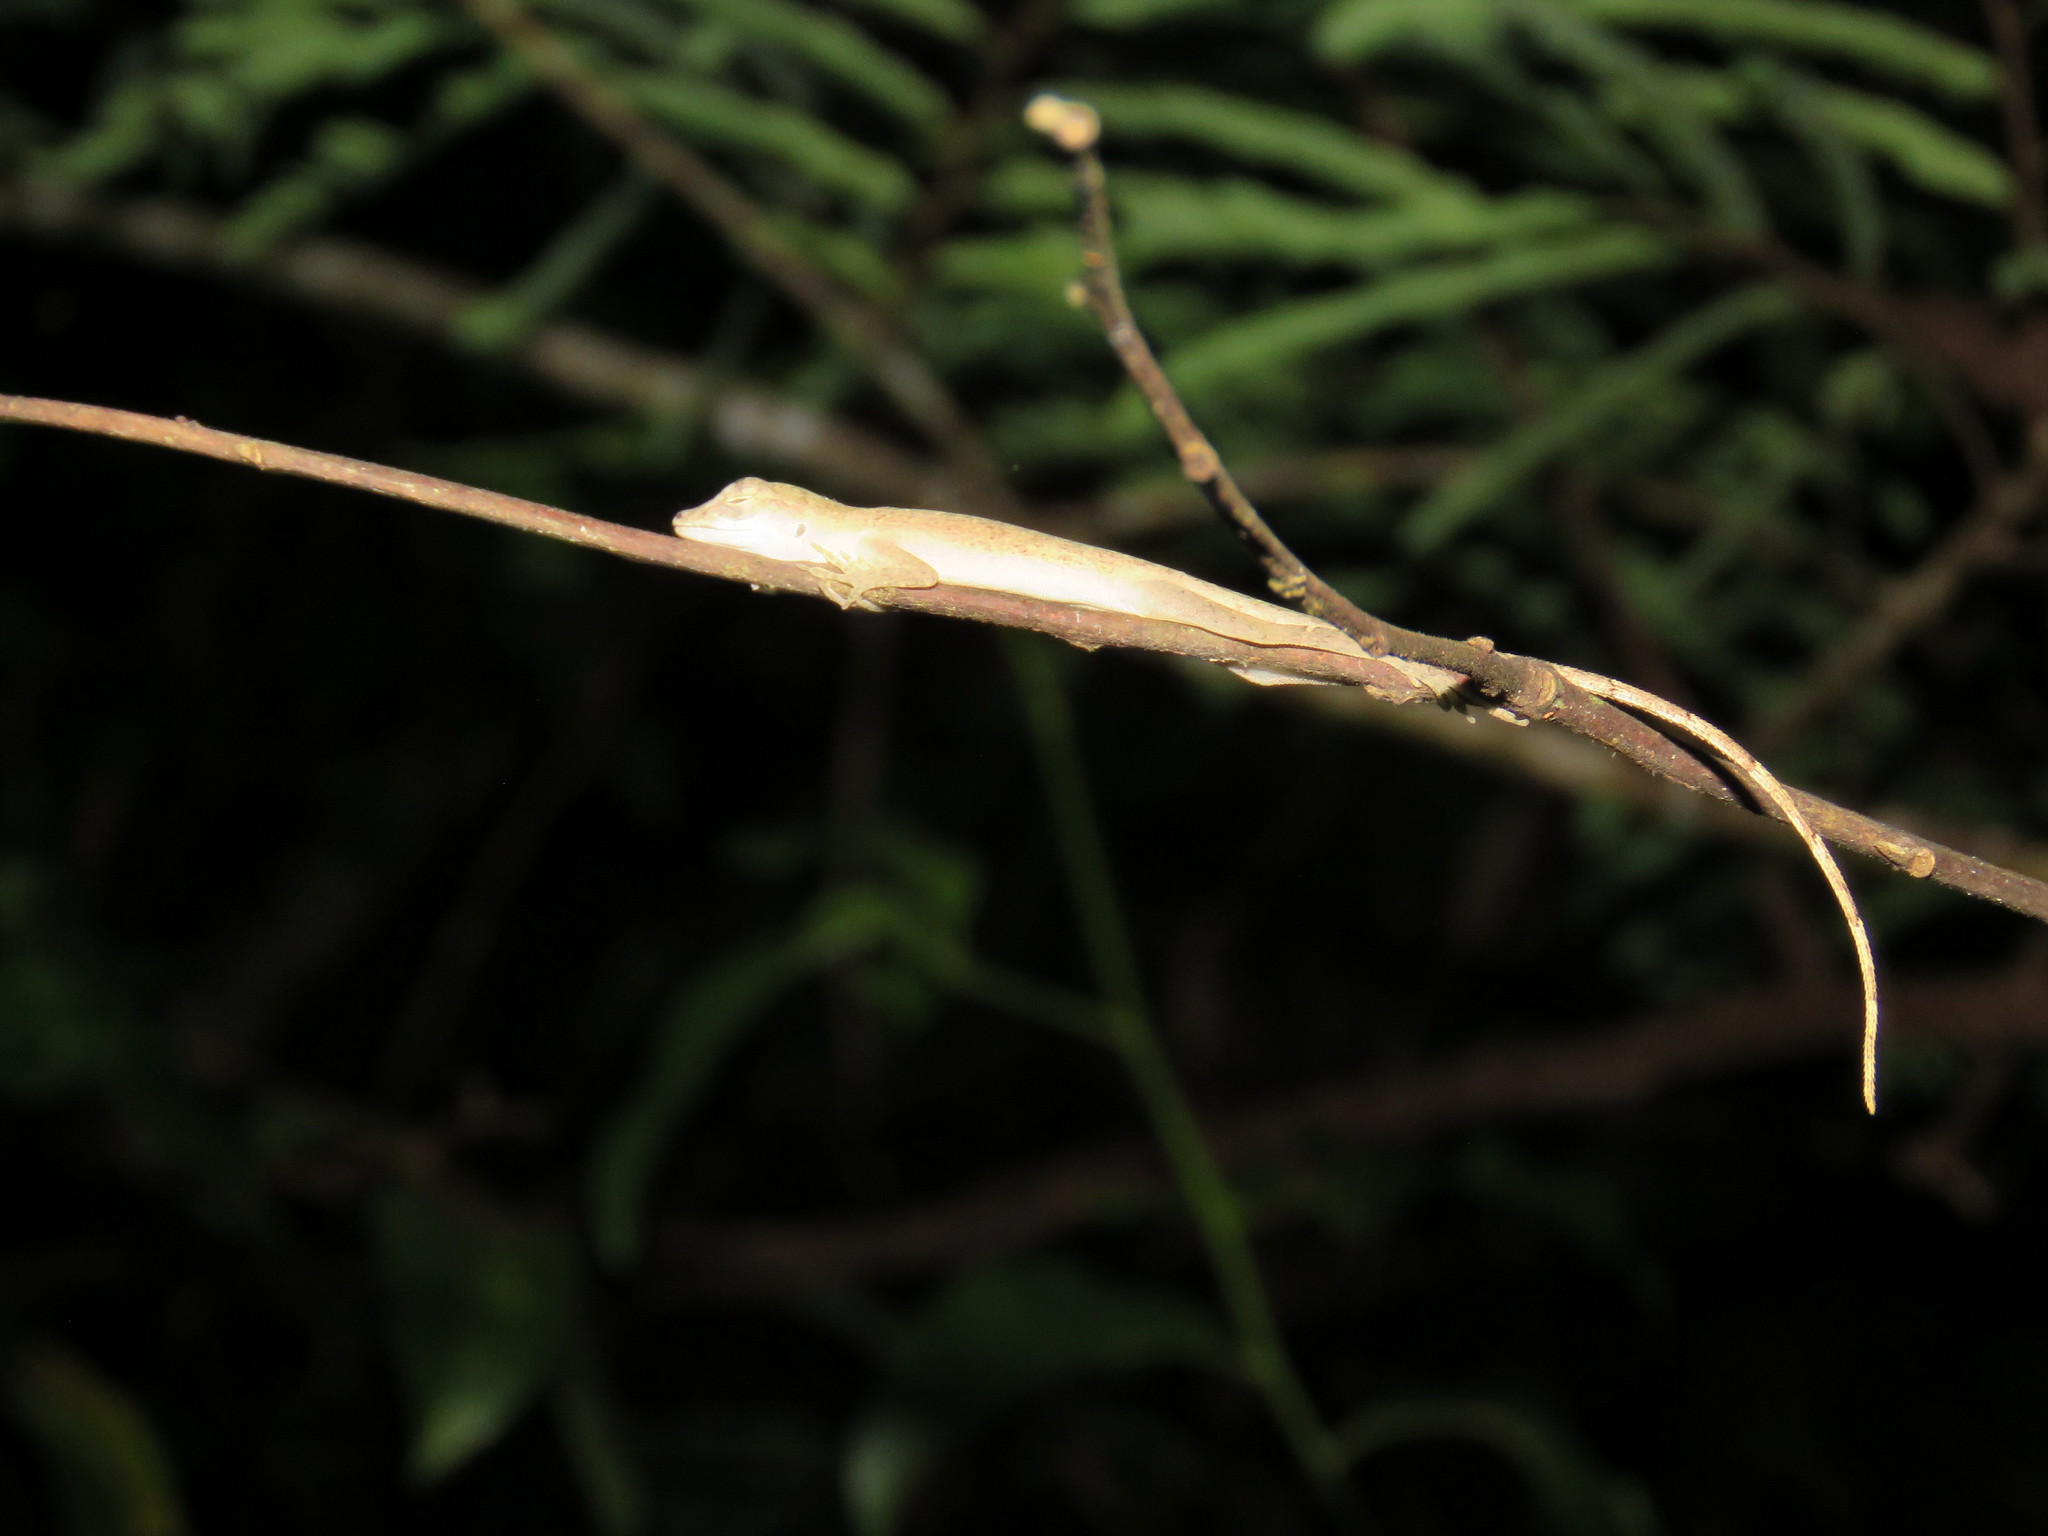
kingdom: Animalia
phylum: Chordata
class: Squamata
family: Dactyloidae
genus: Anolis
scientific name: Anolis fuscoauratus
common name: Brown-eared anole
